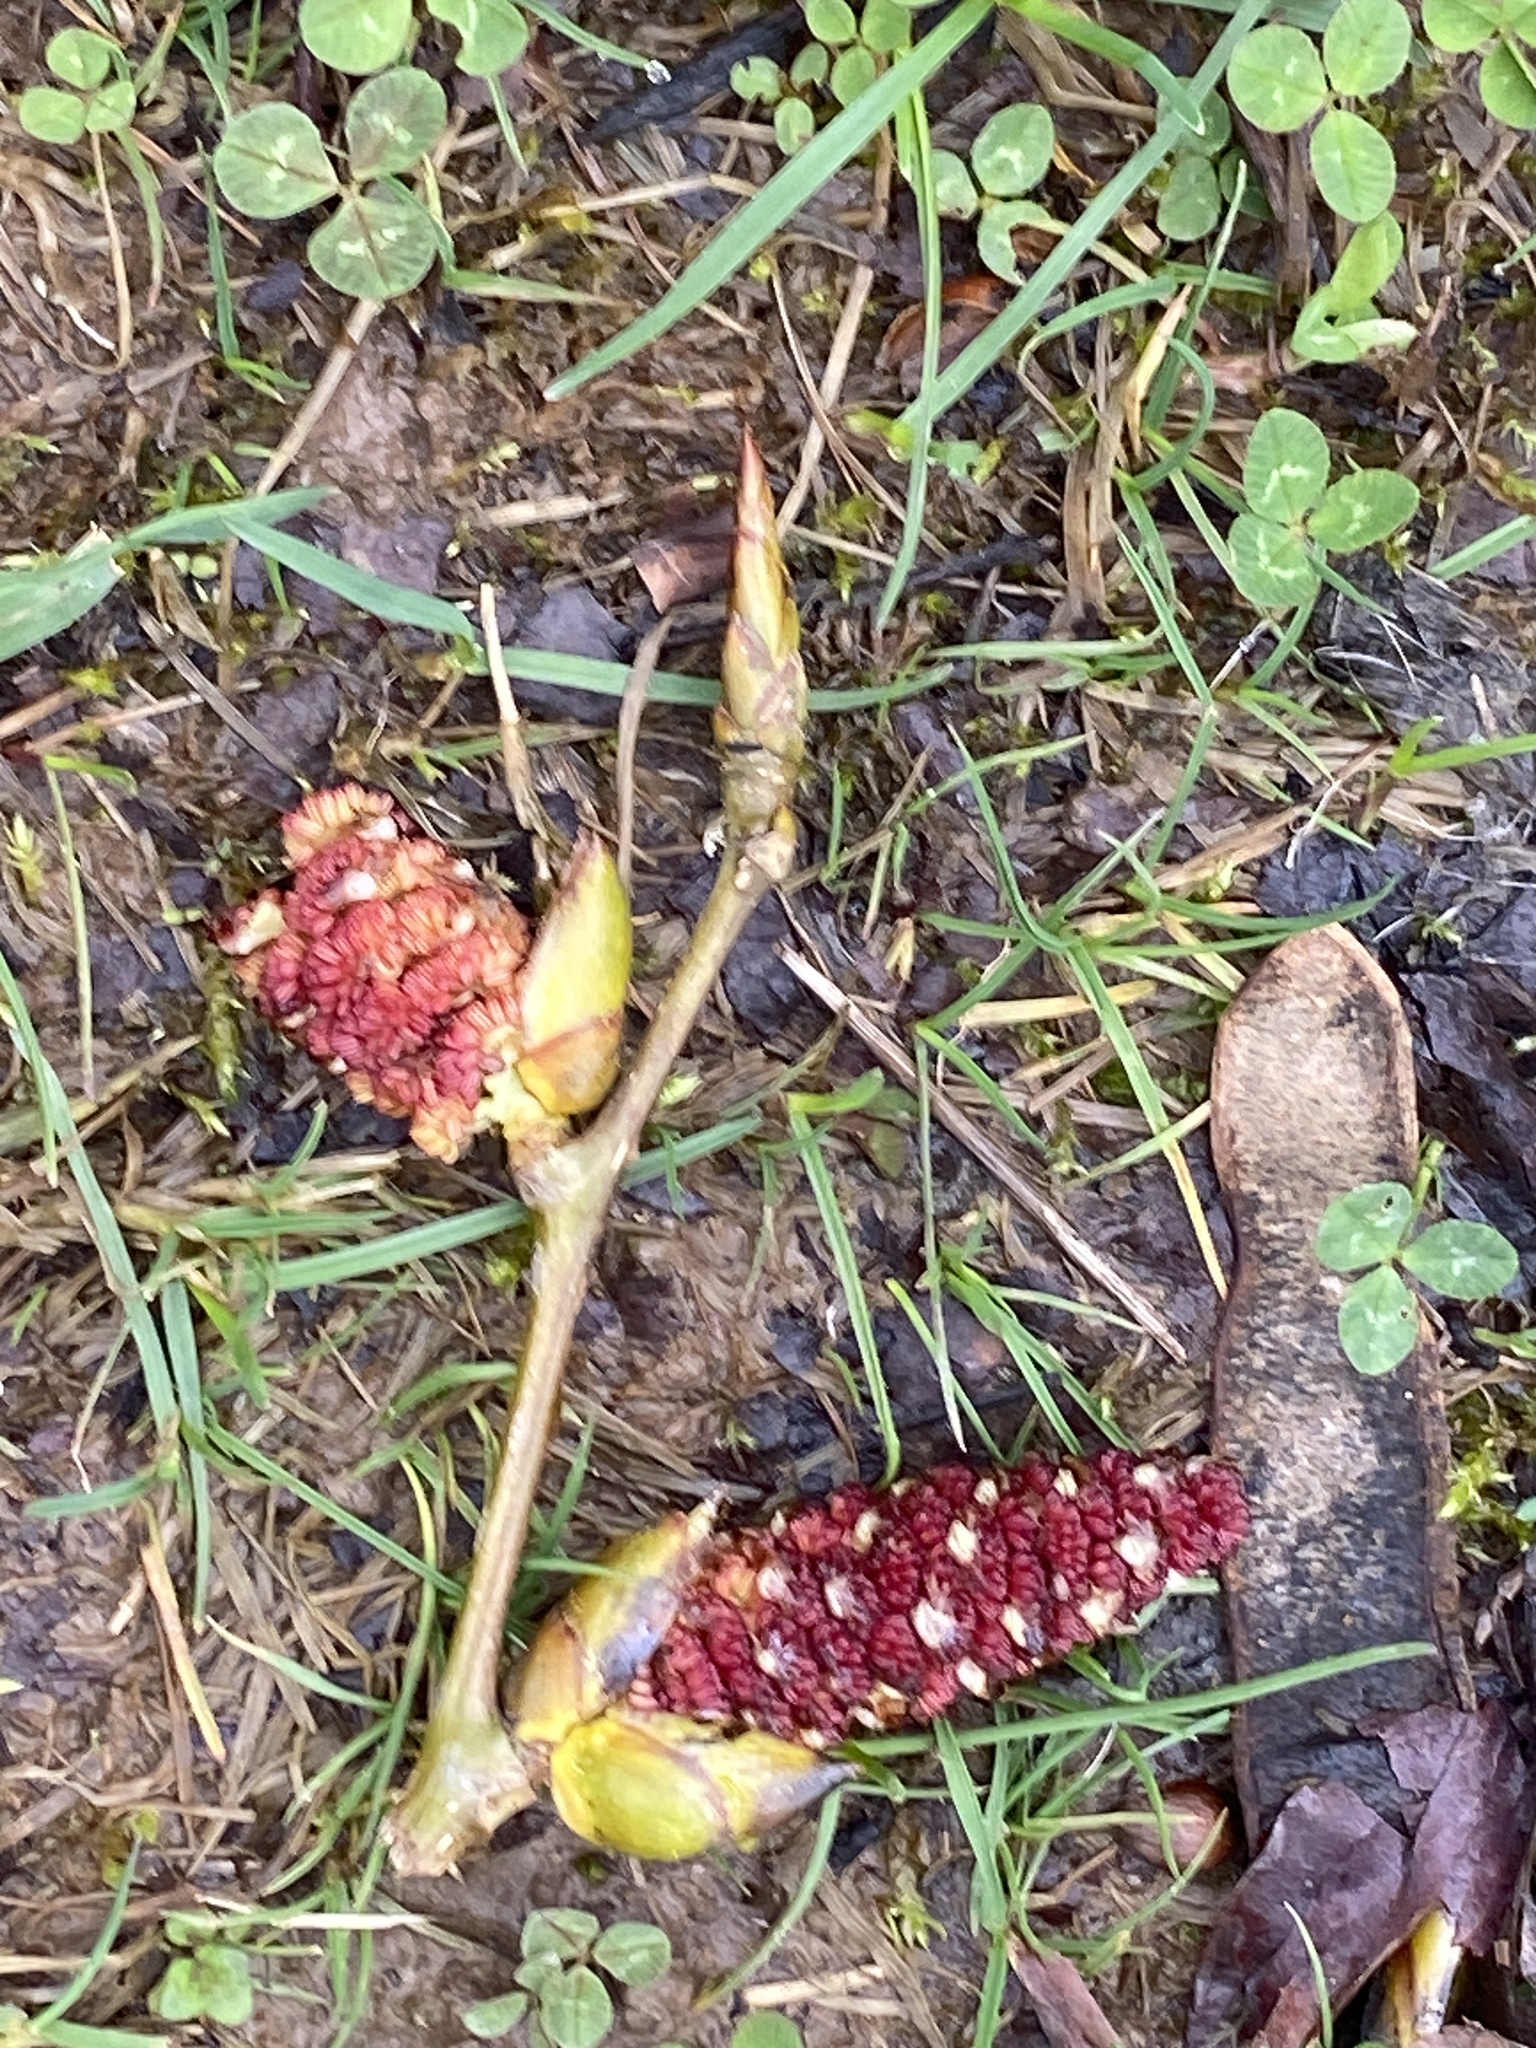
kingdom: Plantae
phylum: Tracheophyta
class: Magnoliopsida
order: Malpighiales
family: Salicaceae
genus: Populus
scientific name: Populus deltoides
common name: Eastern cottonwood
